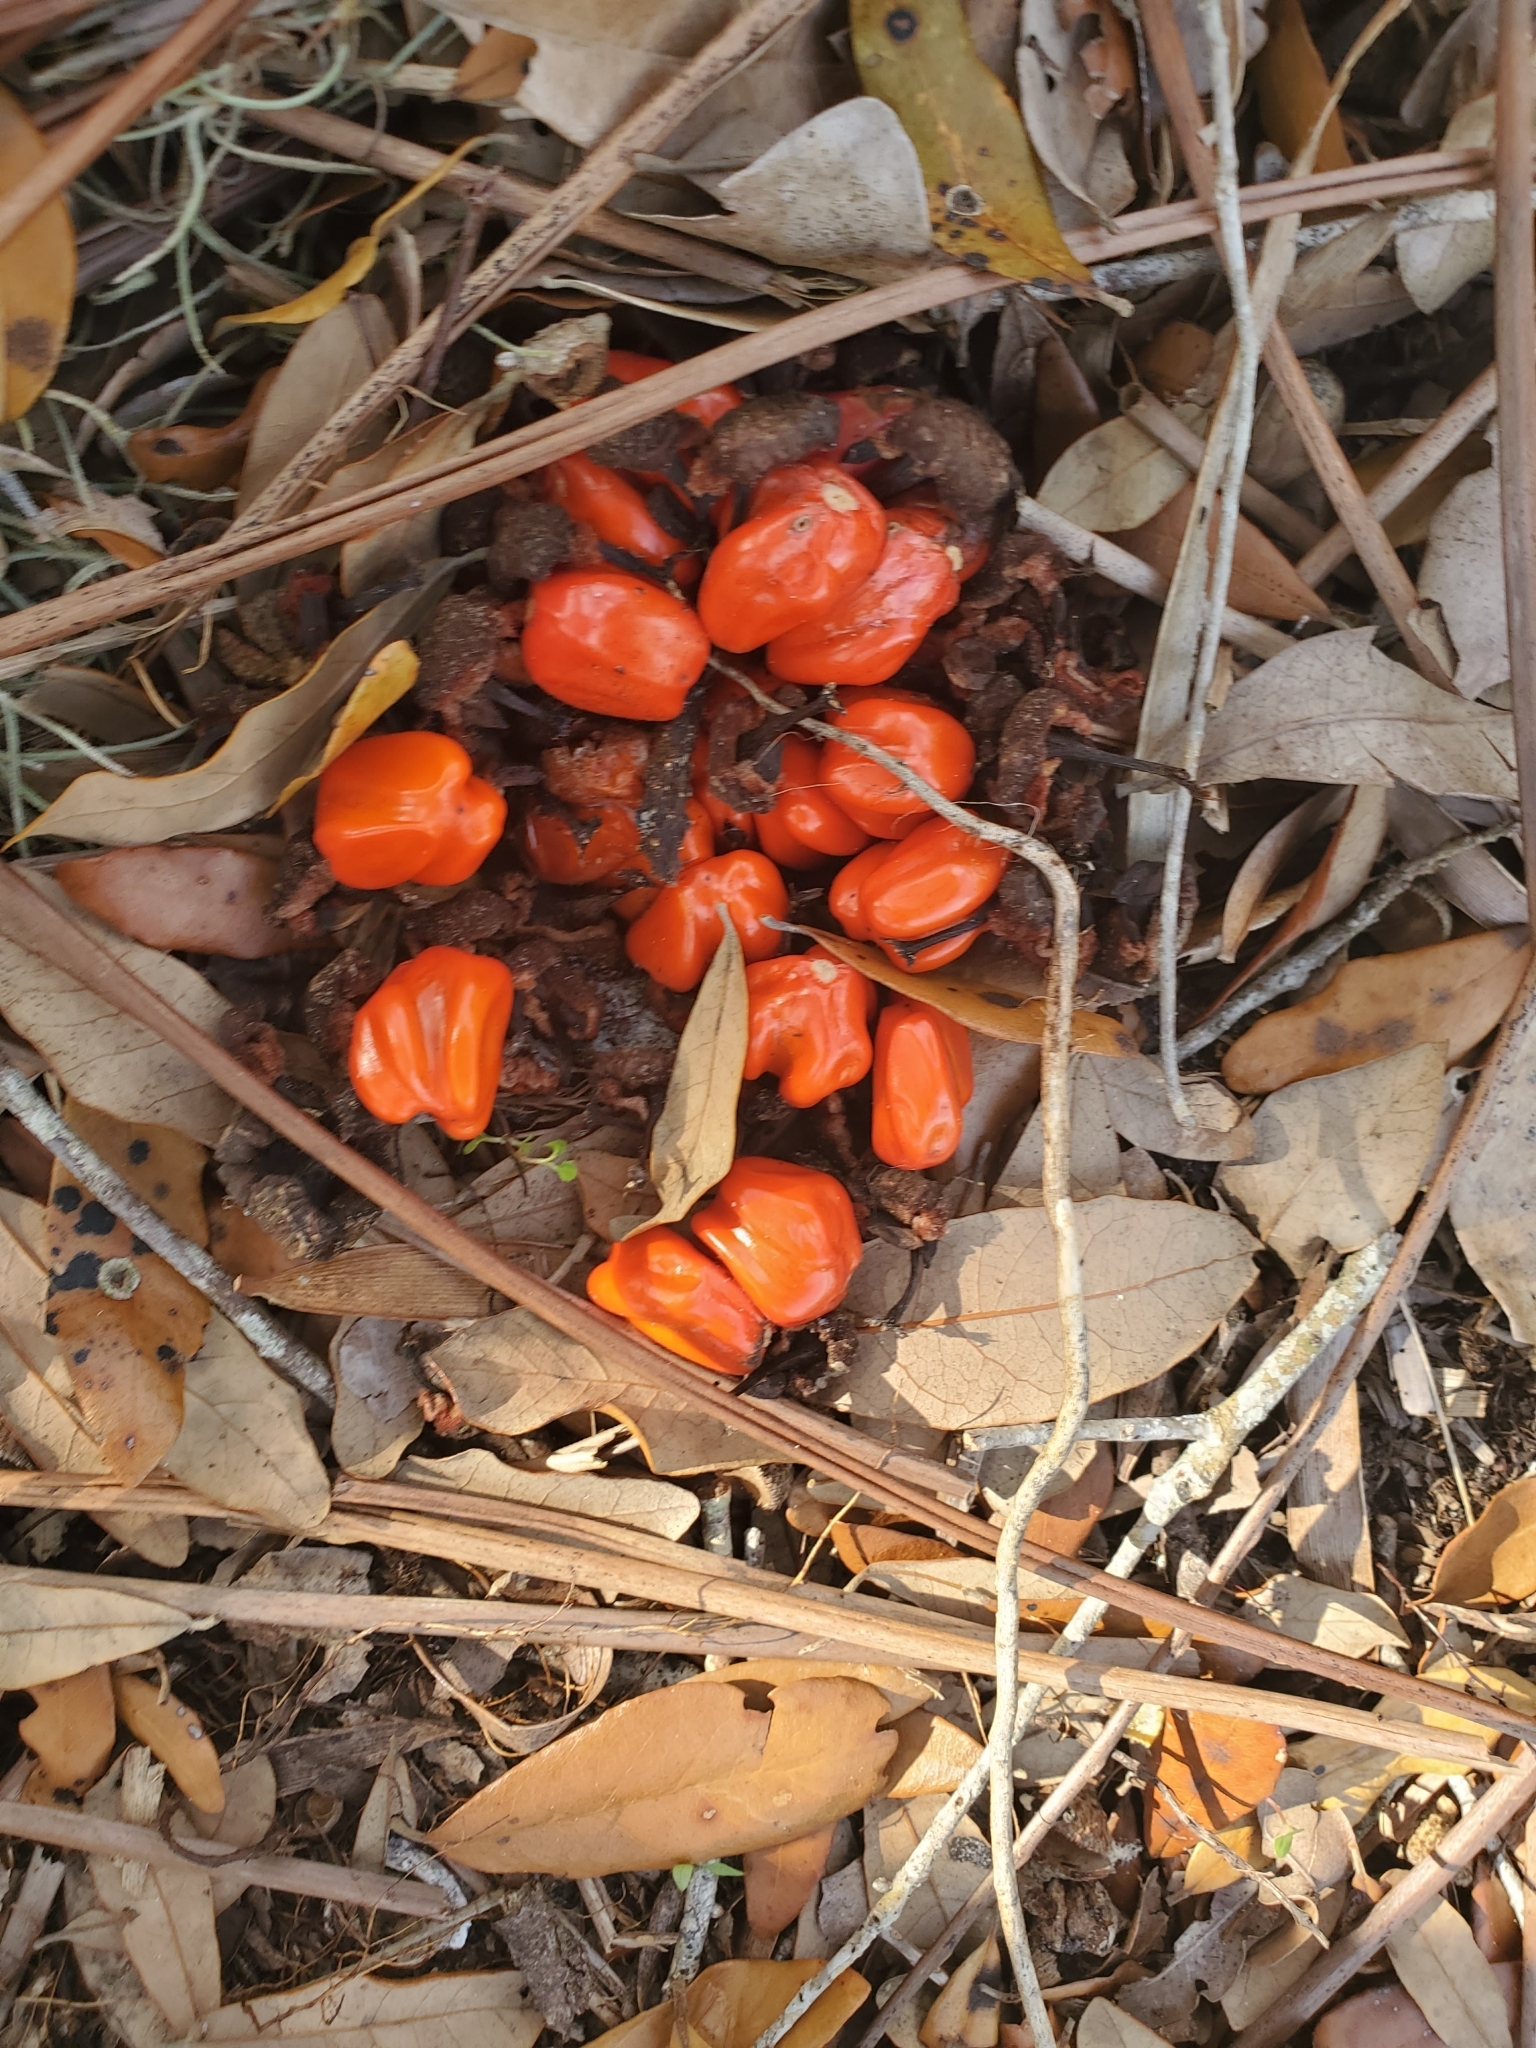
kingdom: Plantae
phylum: Tracheophyta
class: Cycadopsida
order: Cycadales
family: Zamiaceae
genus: Zamia
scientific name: Zamia integrifolia
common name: Florida arrowroot
